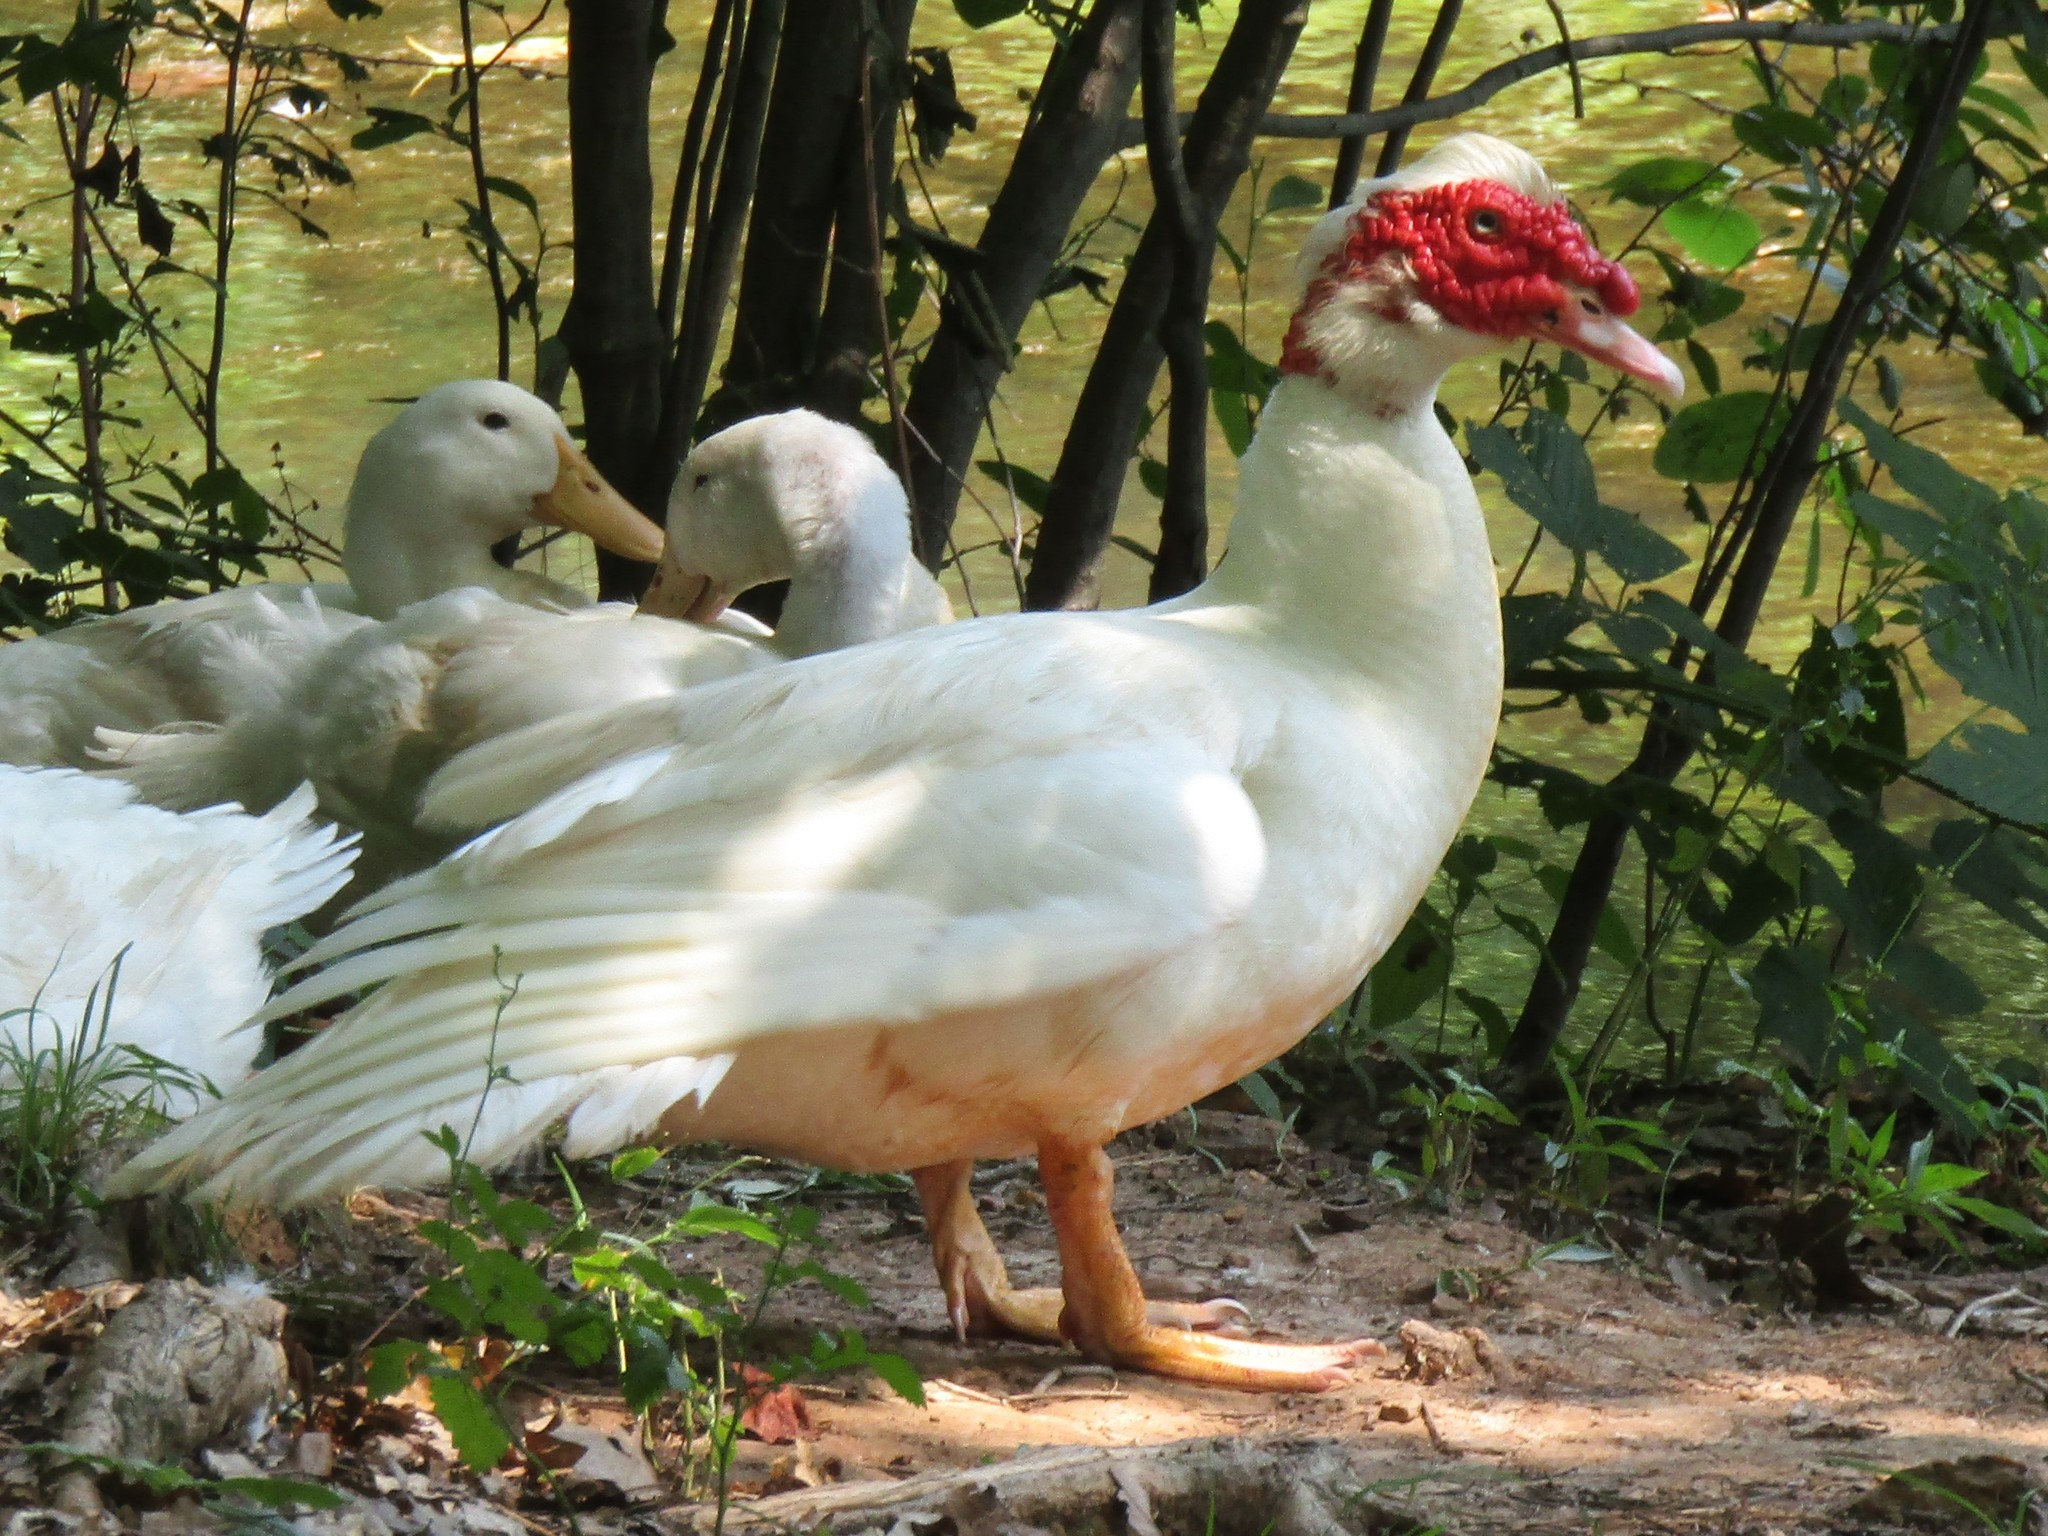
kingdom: Animalia
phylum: Chordata
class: Aves
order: Anseriformes
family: Anatidae
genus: Cairina
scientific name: Cairina moschata
